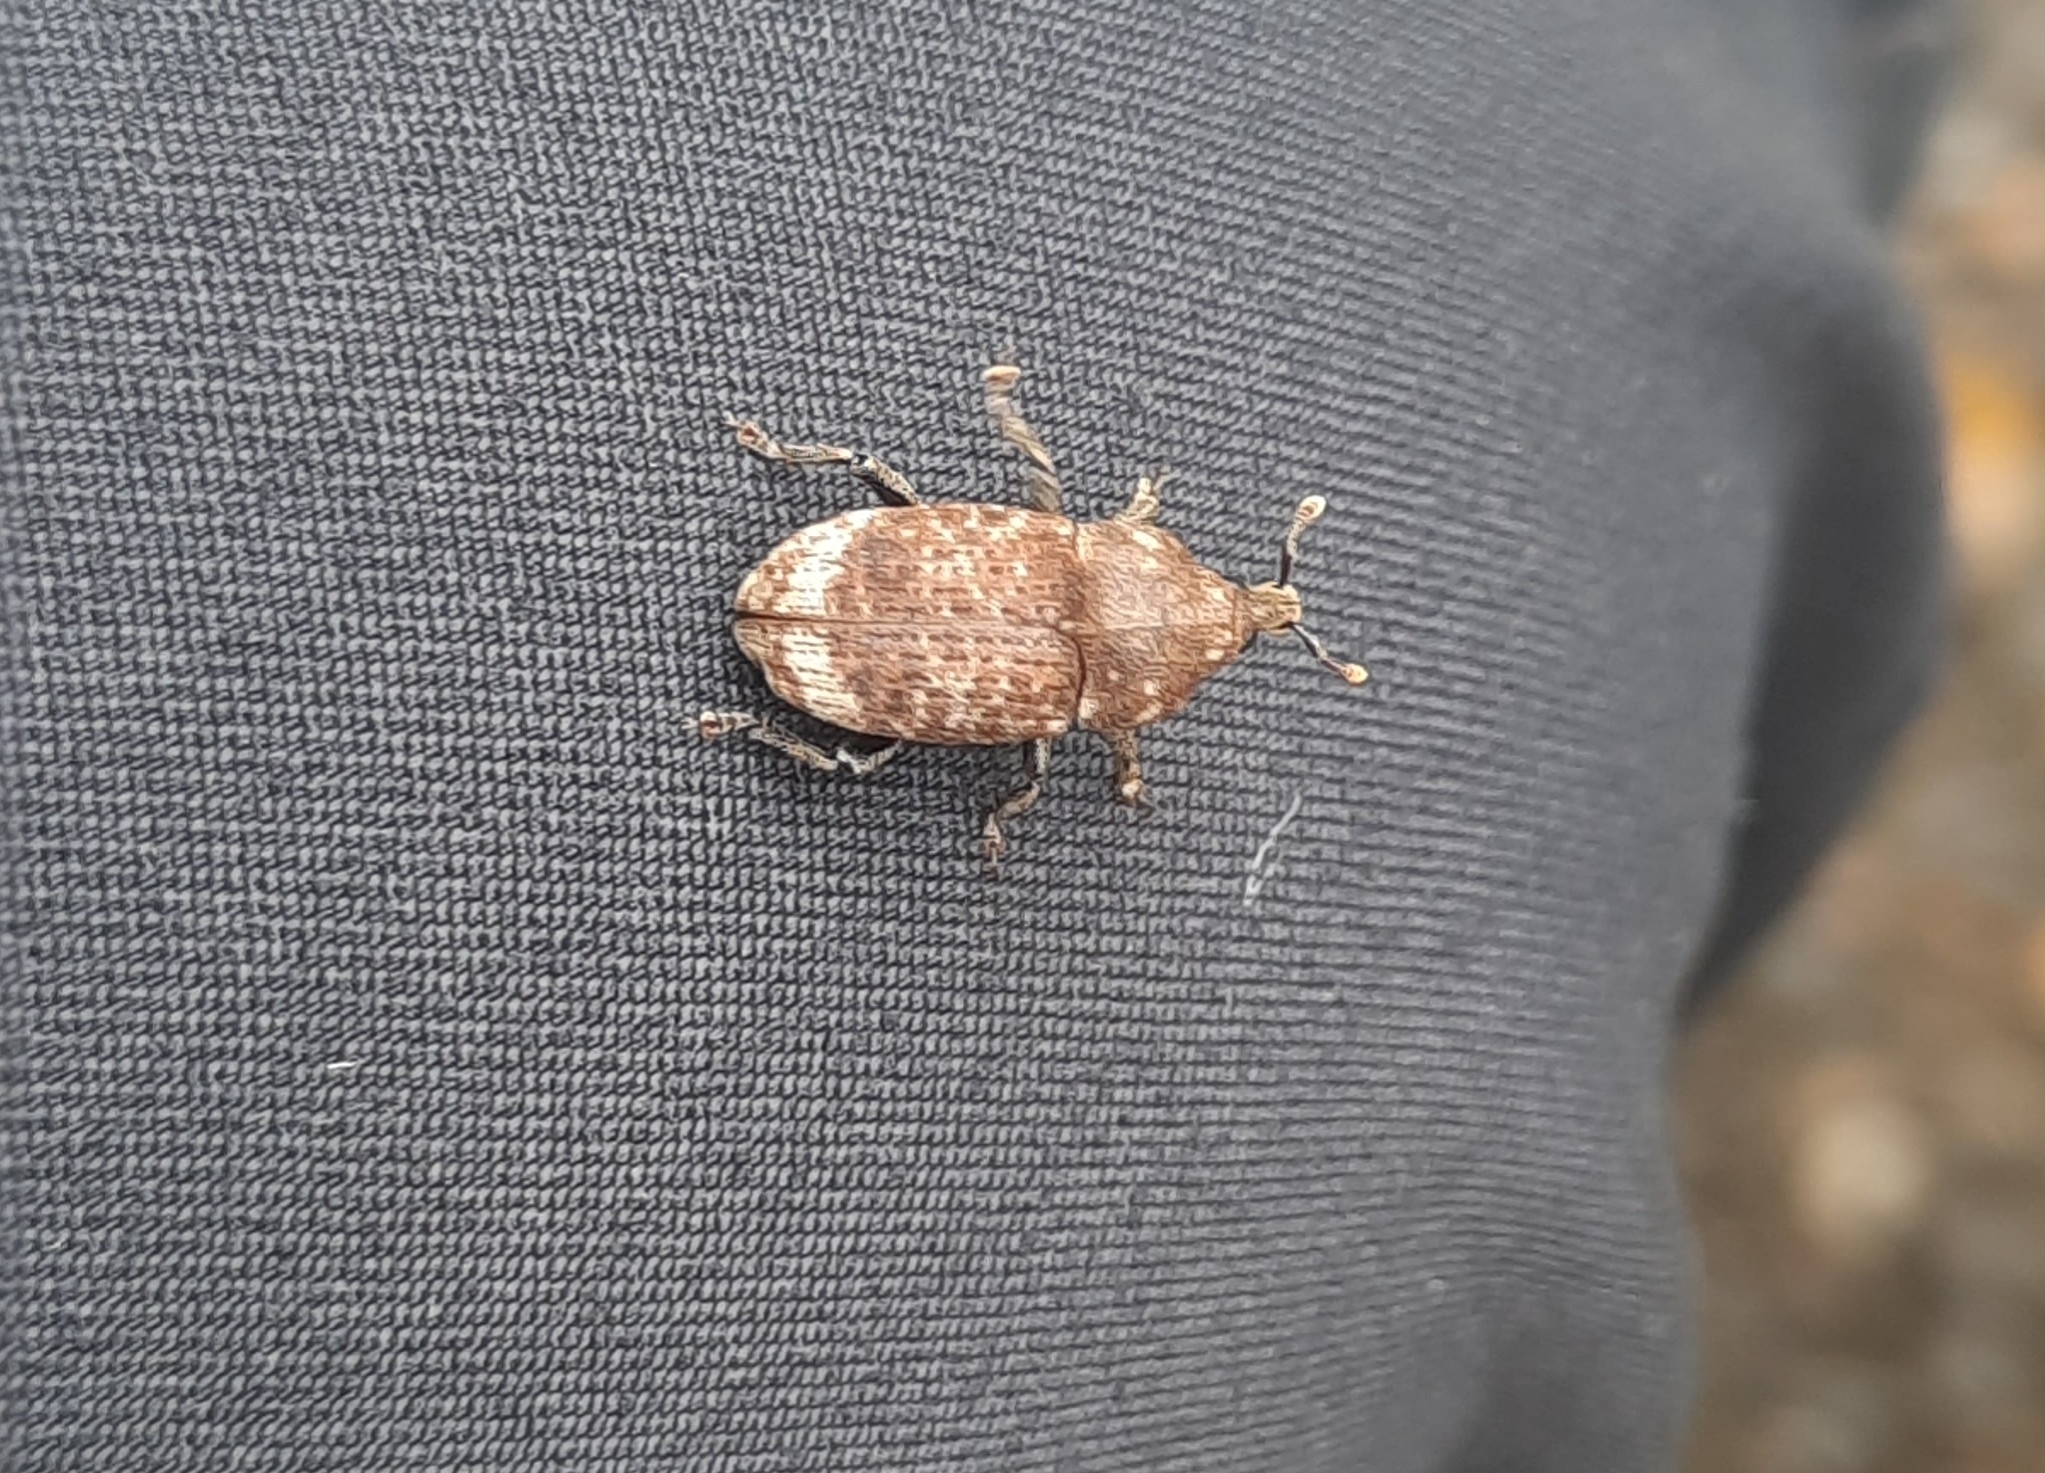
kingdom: Animalia
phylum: Arthropoda
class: Insecta
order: Coleoptera
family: Curculionidae
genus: Homoreda
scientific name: Homoreda
